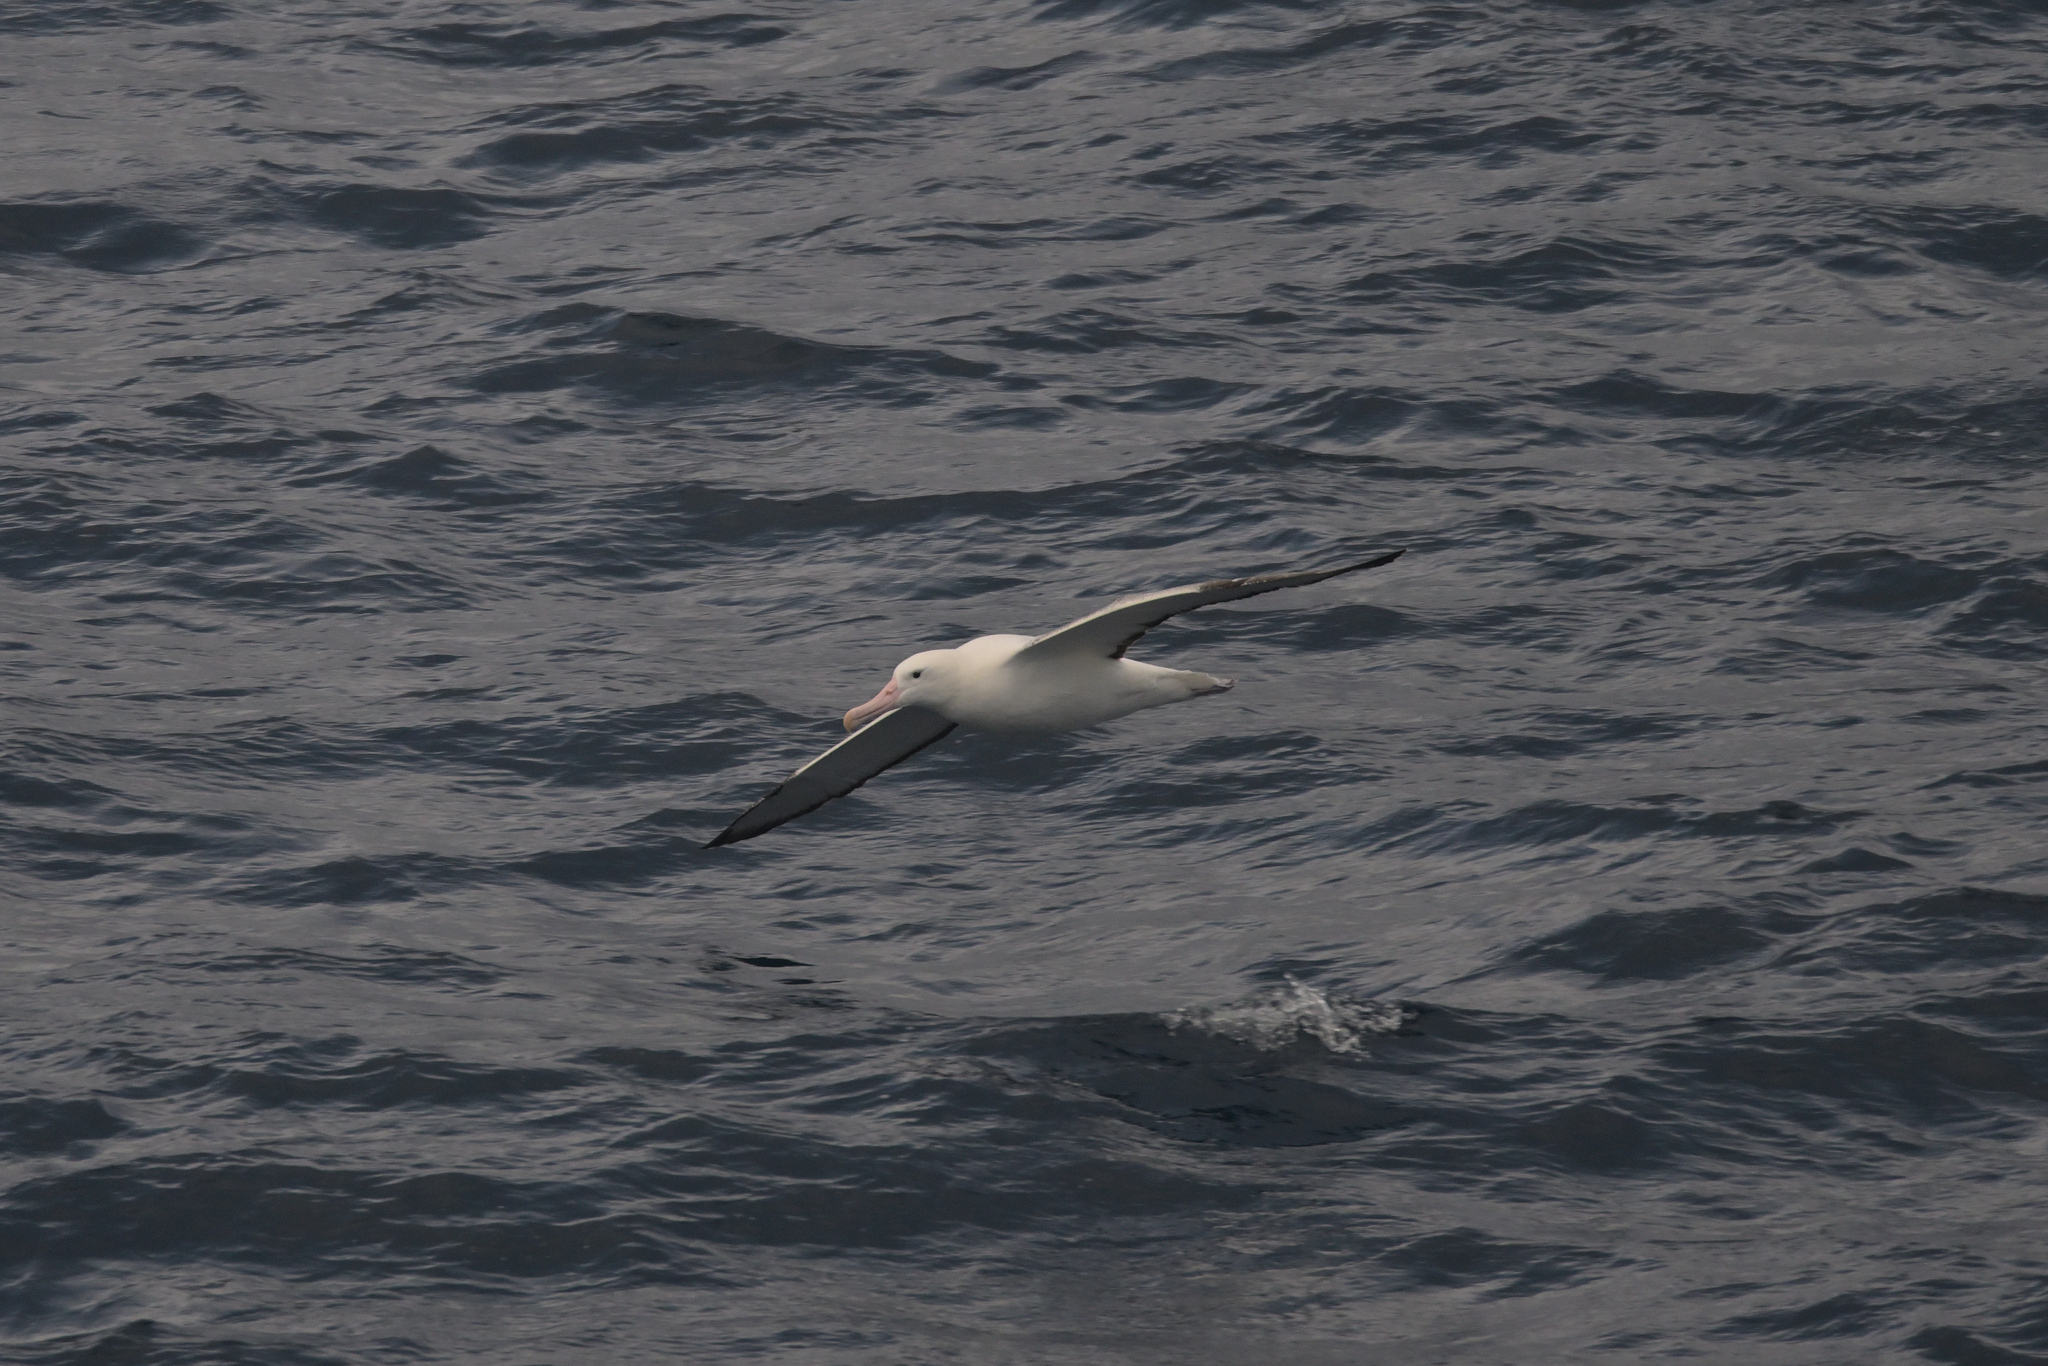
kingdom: Animalia
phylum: Chordata
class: Aves
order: Procellariiformes
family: Diomedeidae
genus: Diomedea
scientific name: Diomedea epomophora
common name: Southern royal albatross
